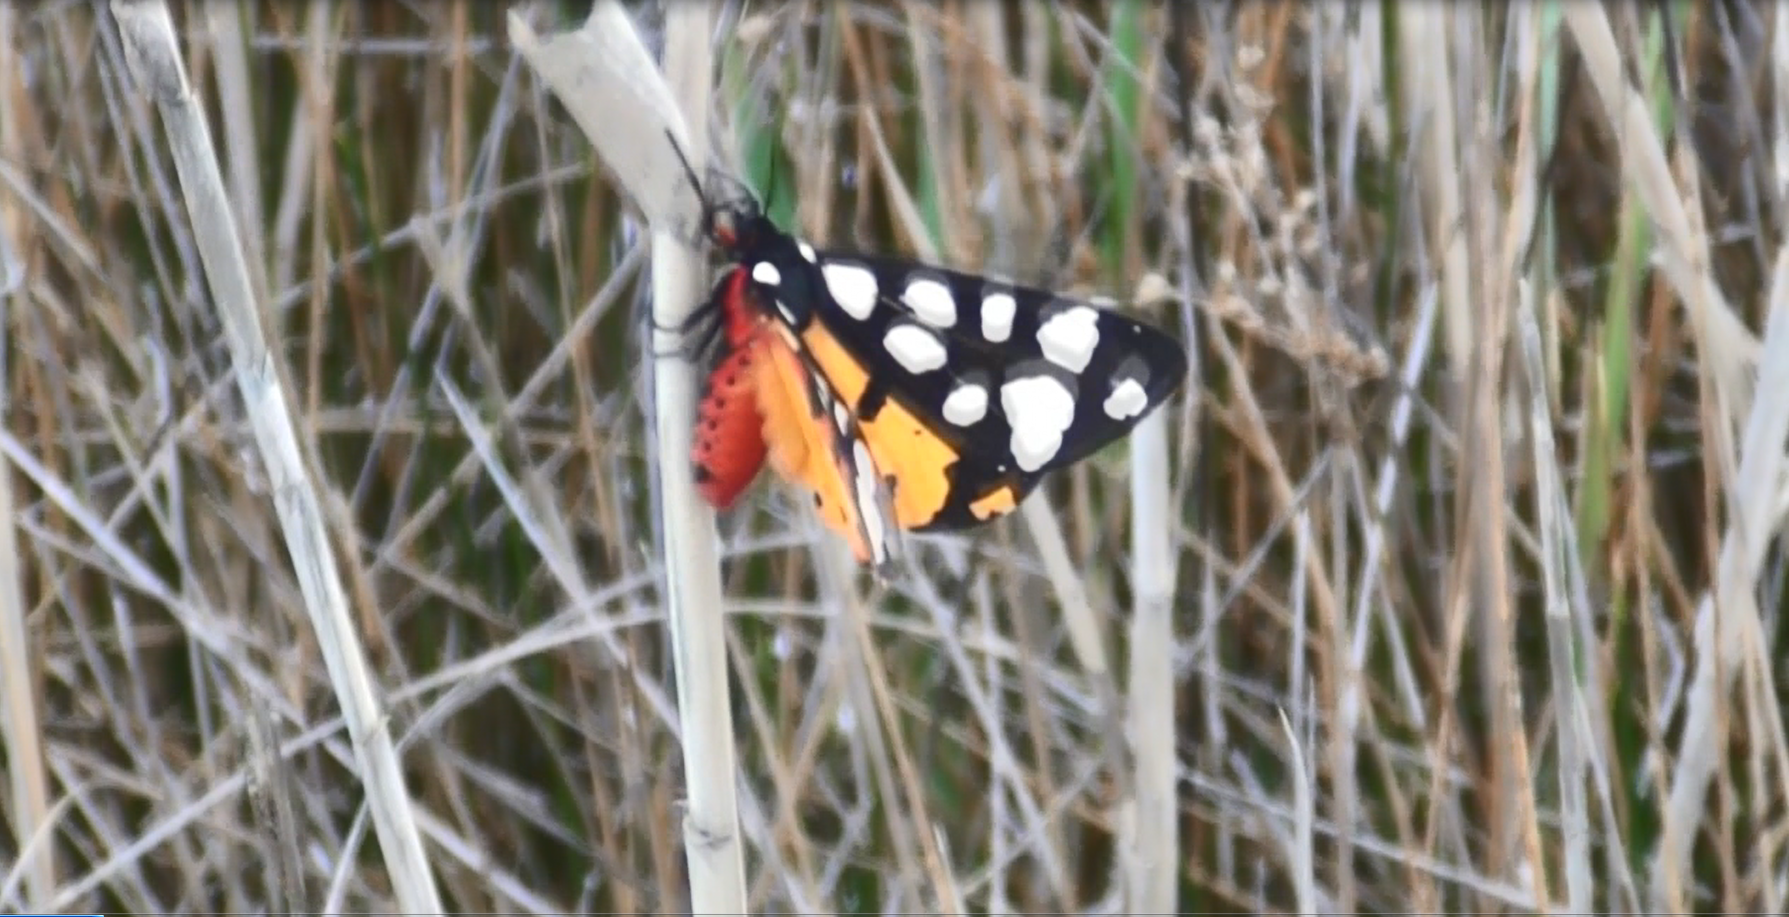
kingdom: Animalia
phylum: Arthropoda
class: Insecta
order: Lepidoptera
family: Erebidae
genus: Epicallia
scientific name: Epicallia villica
